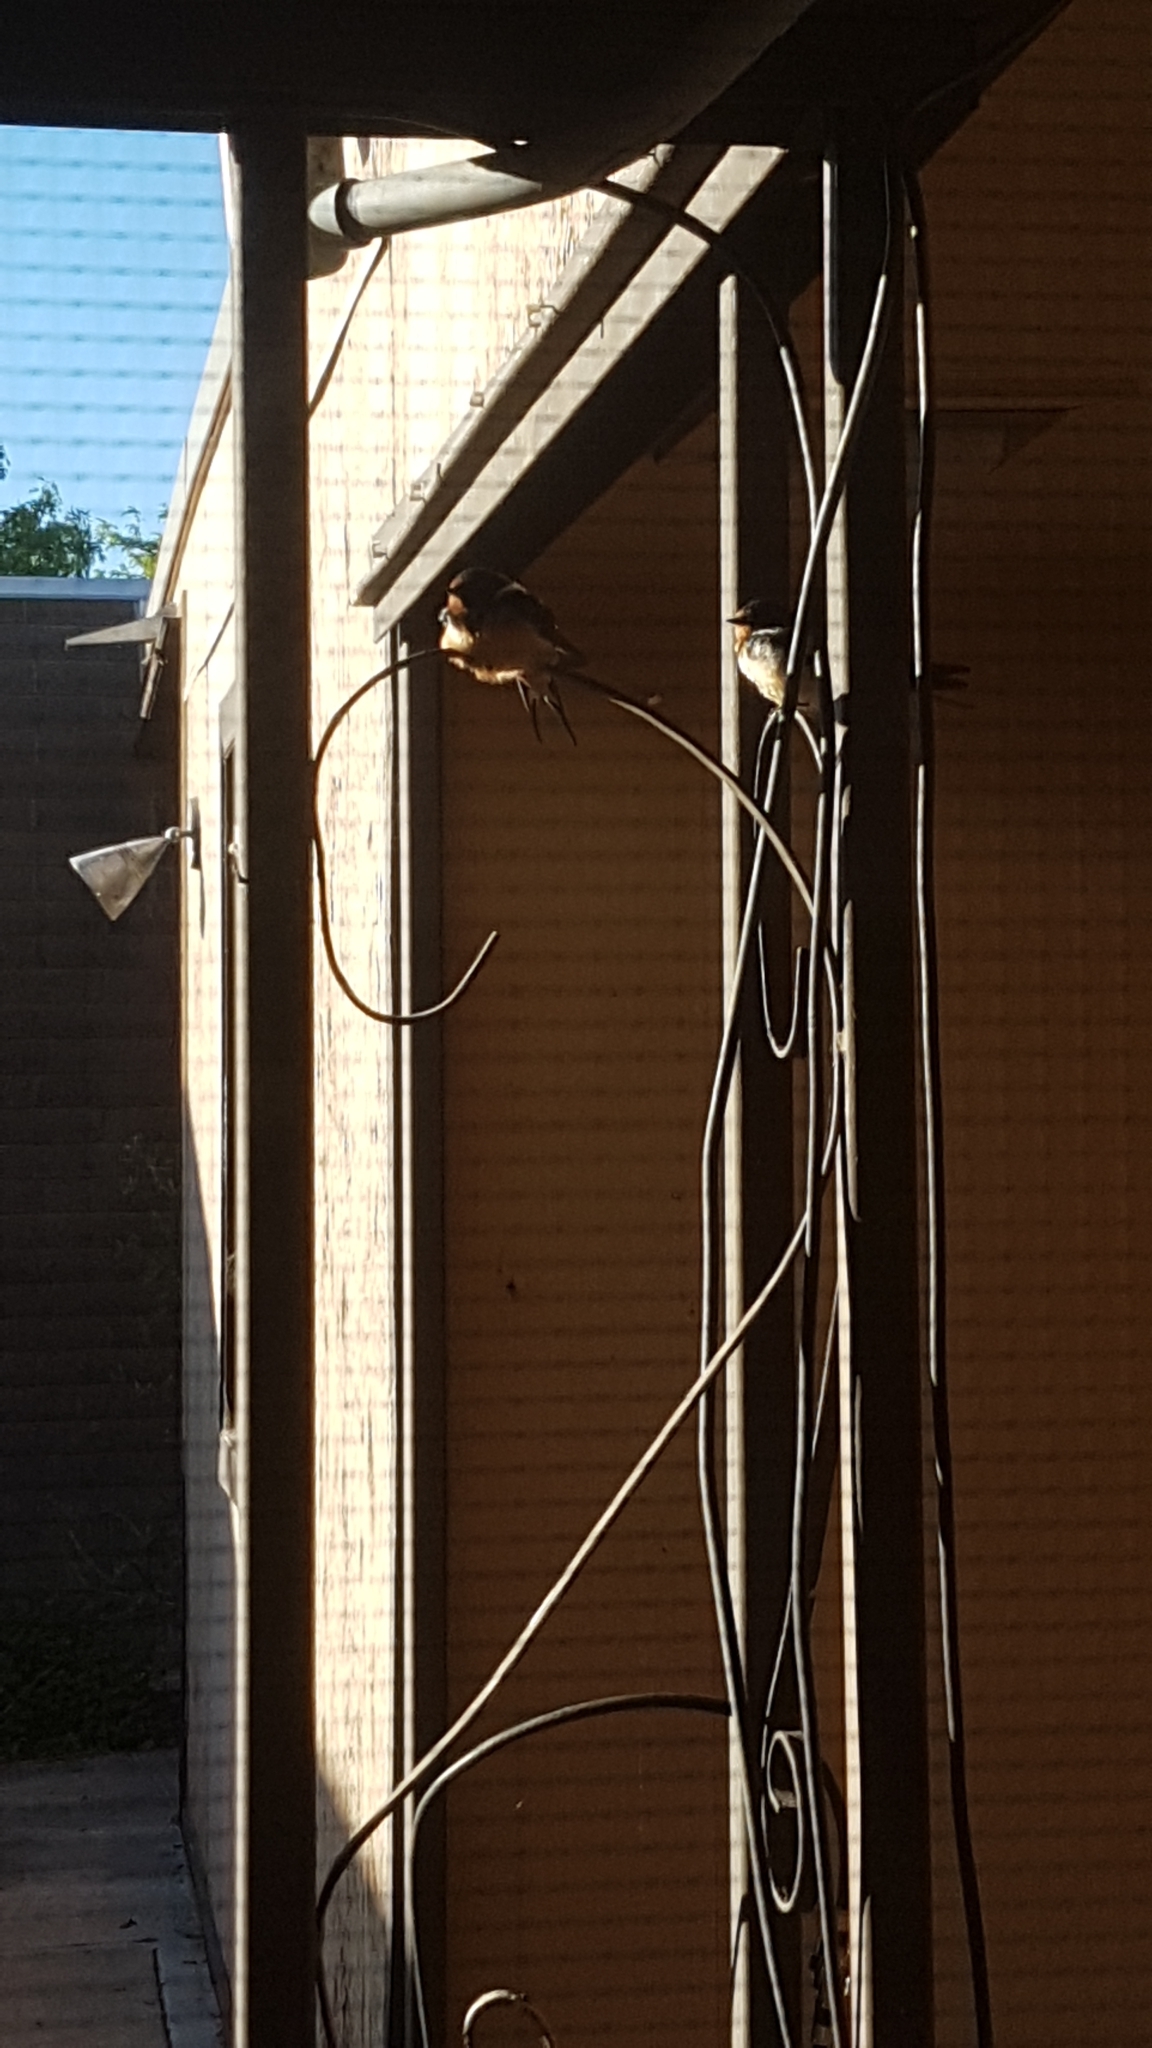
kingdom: Animalia
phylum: Chordata
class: Aves
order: Passeriformes
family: Hirundinidae
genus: Hirundo
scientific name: Hirundo rustica
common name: Barn swallow
